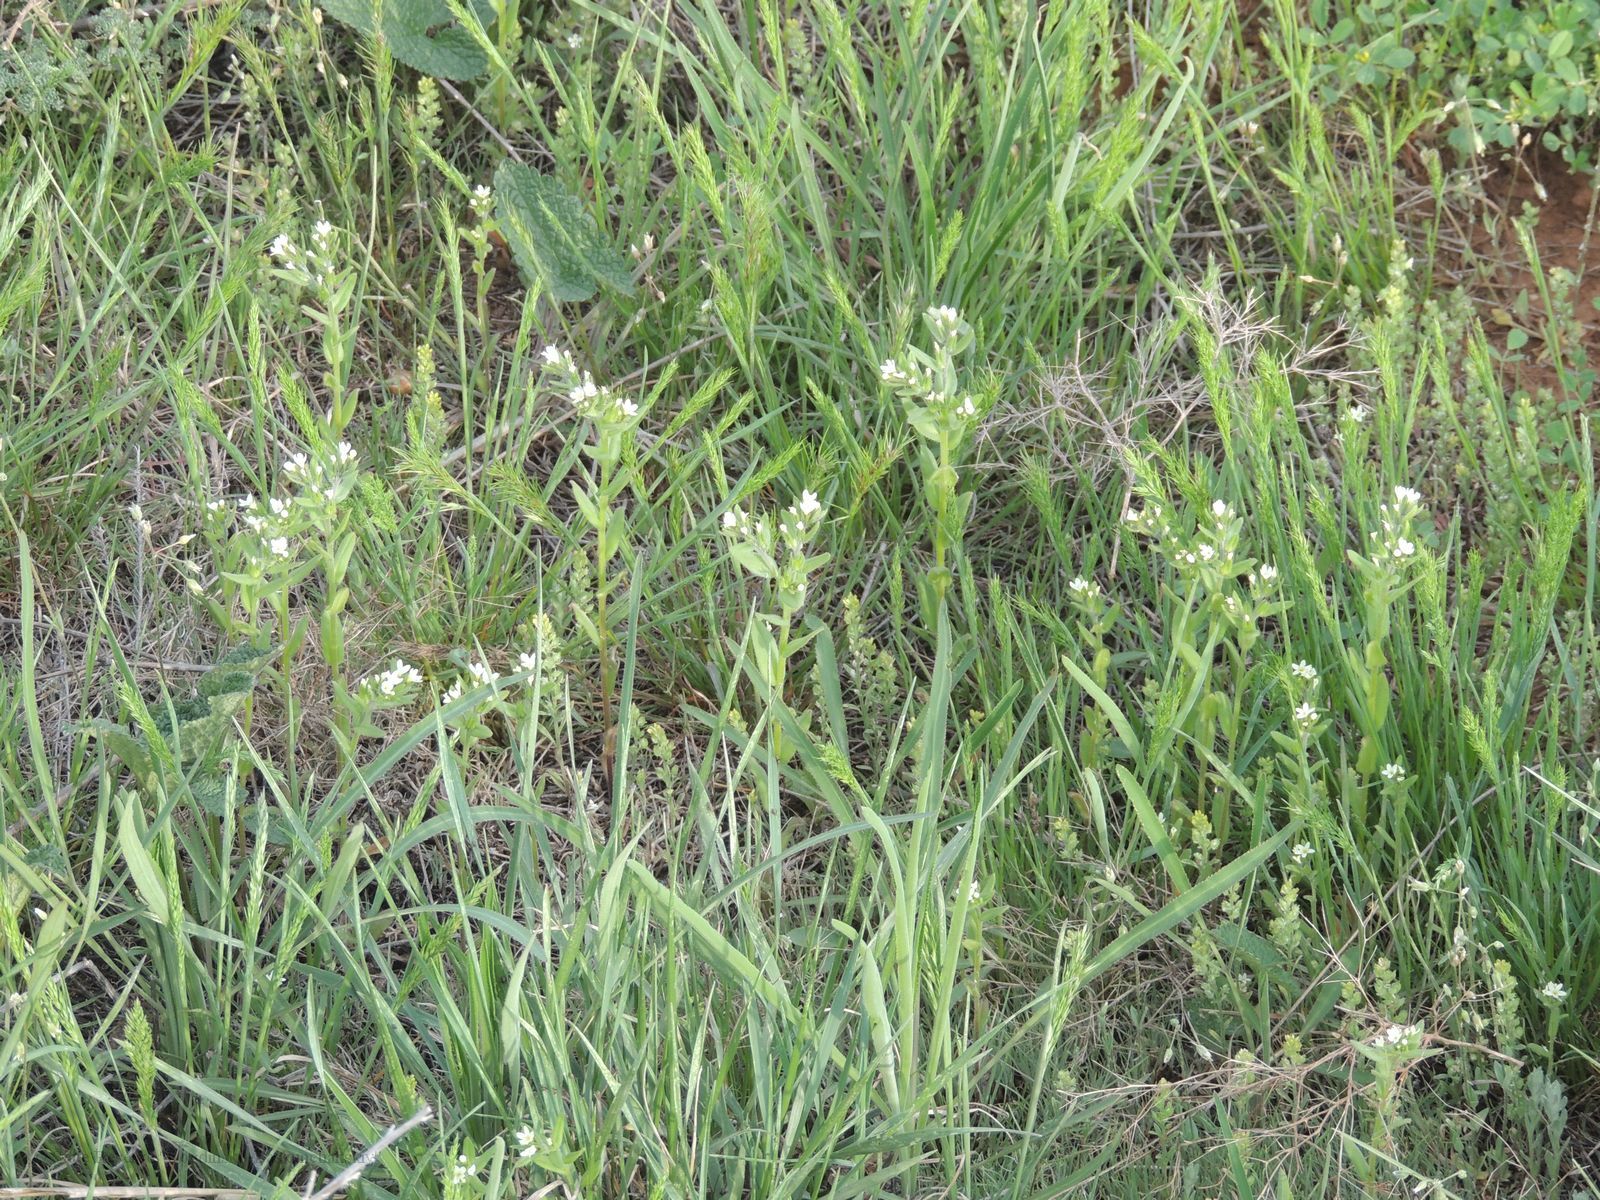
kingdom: Plantae
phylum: Tracheophyta
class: Magnoliopsida
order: Boraginales
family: Boraginaceae
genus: Buglossoides
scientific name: Buglossoides arvensis
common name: Corn gromwell
